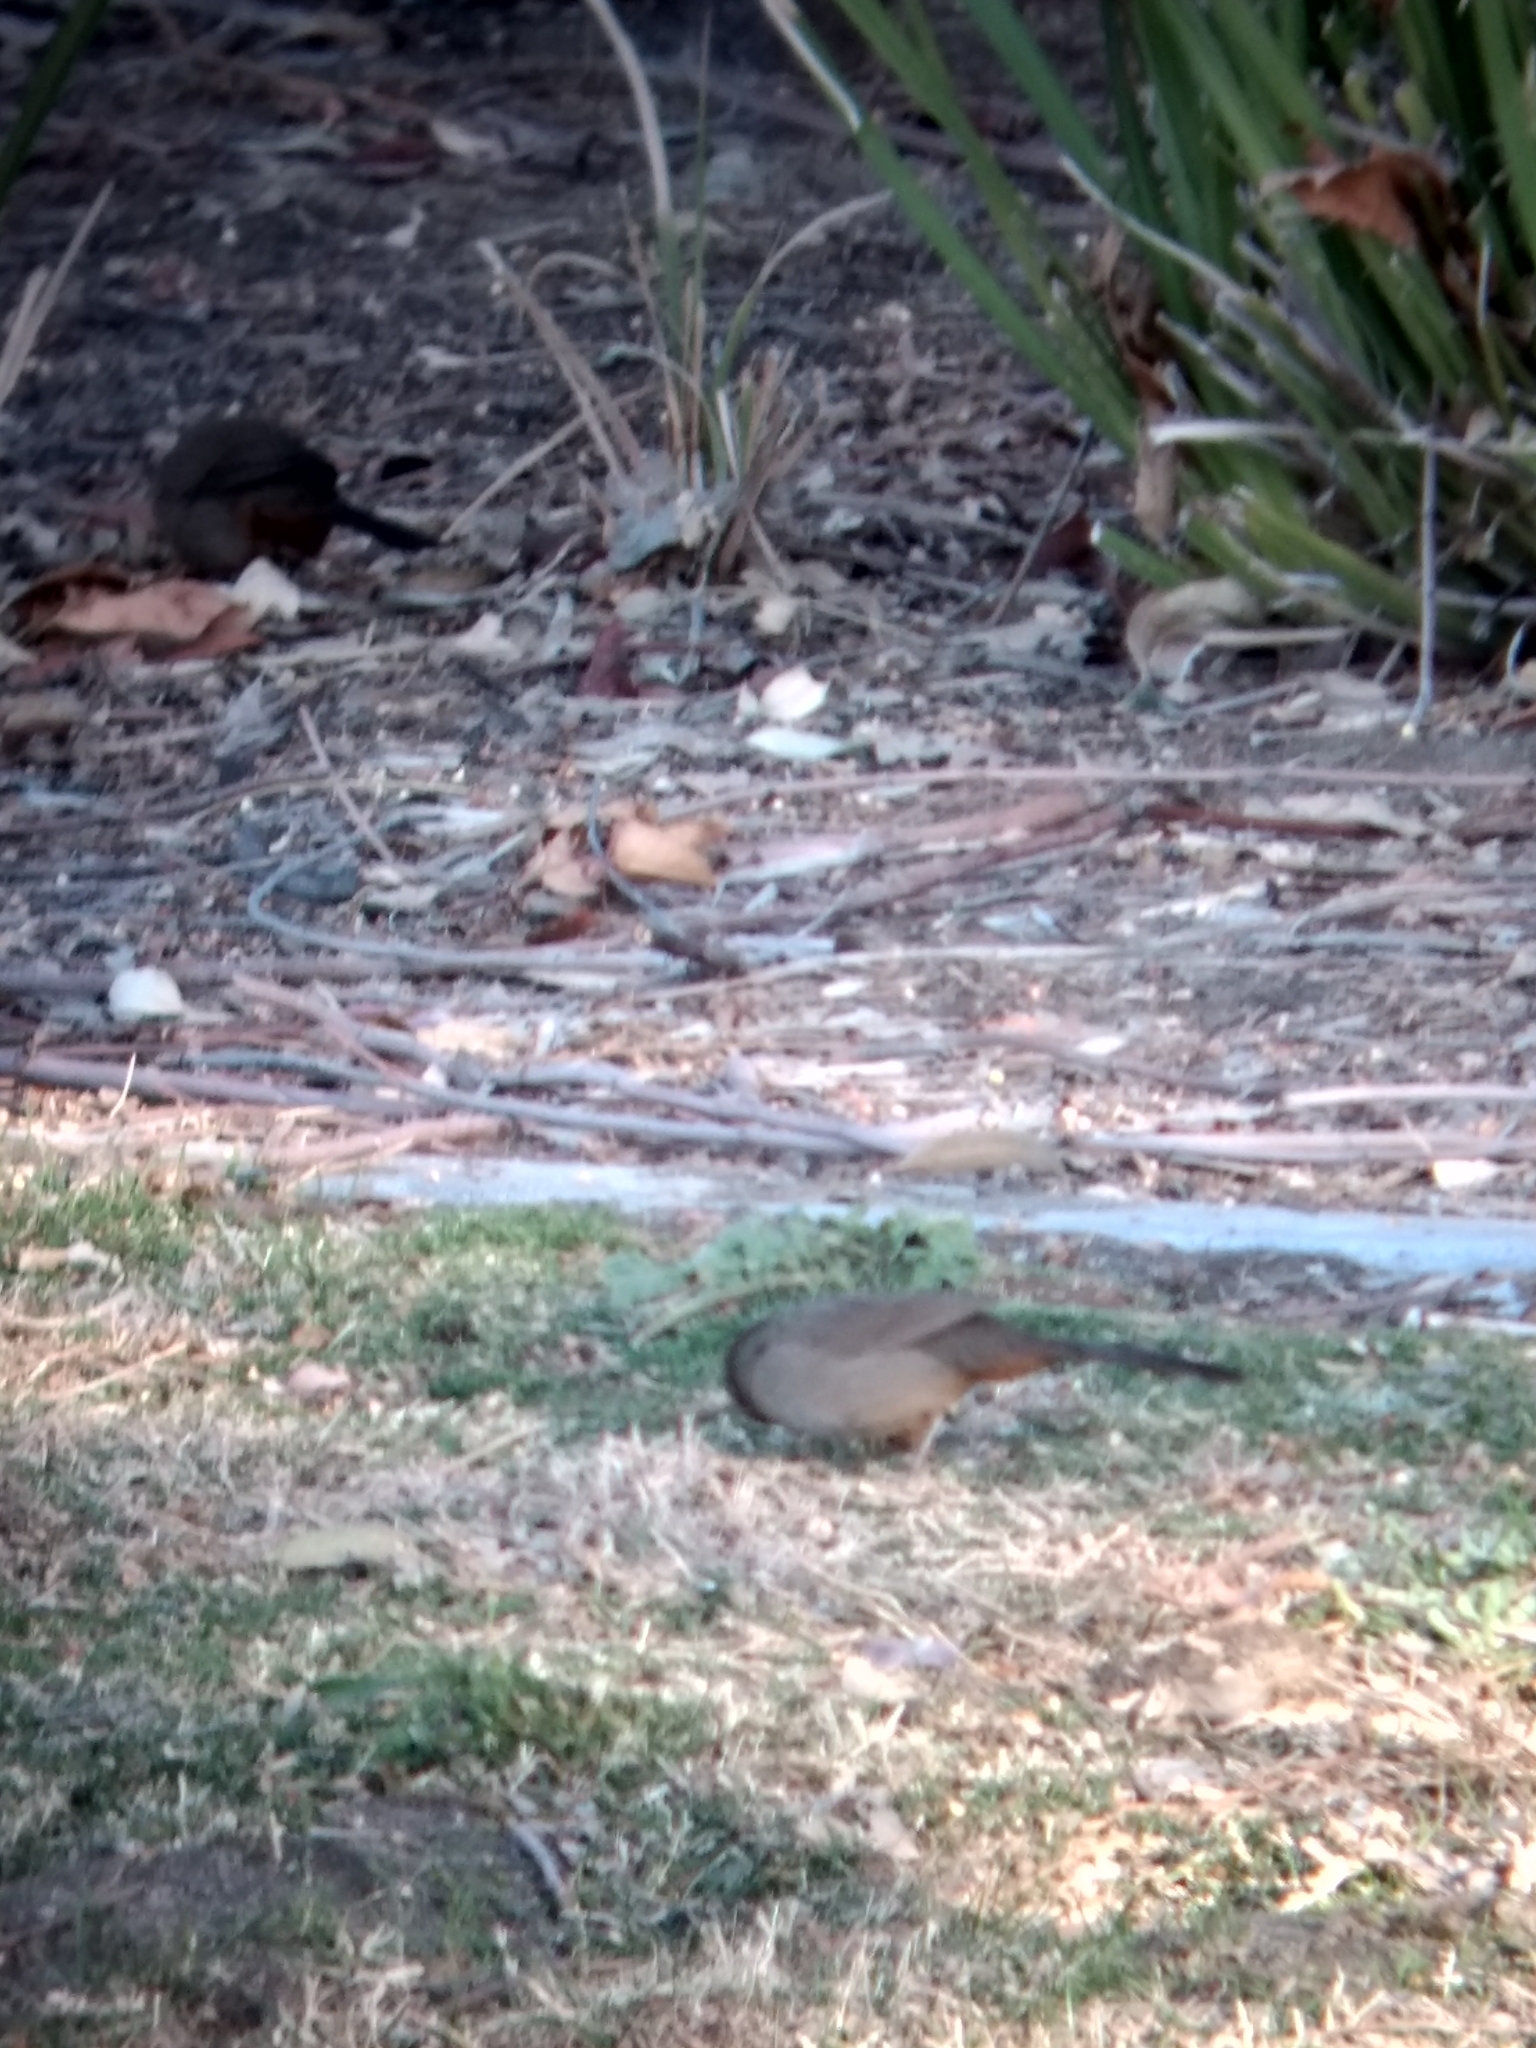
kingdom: Animalia
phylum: Chordata
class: Aves
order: Passeriformes
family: Passerellidae
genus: Melozone
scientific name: Melozone crissalis
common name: California towhee
